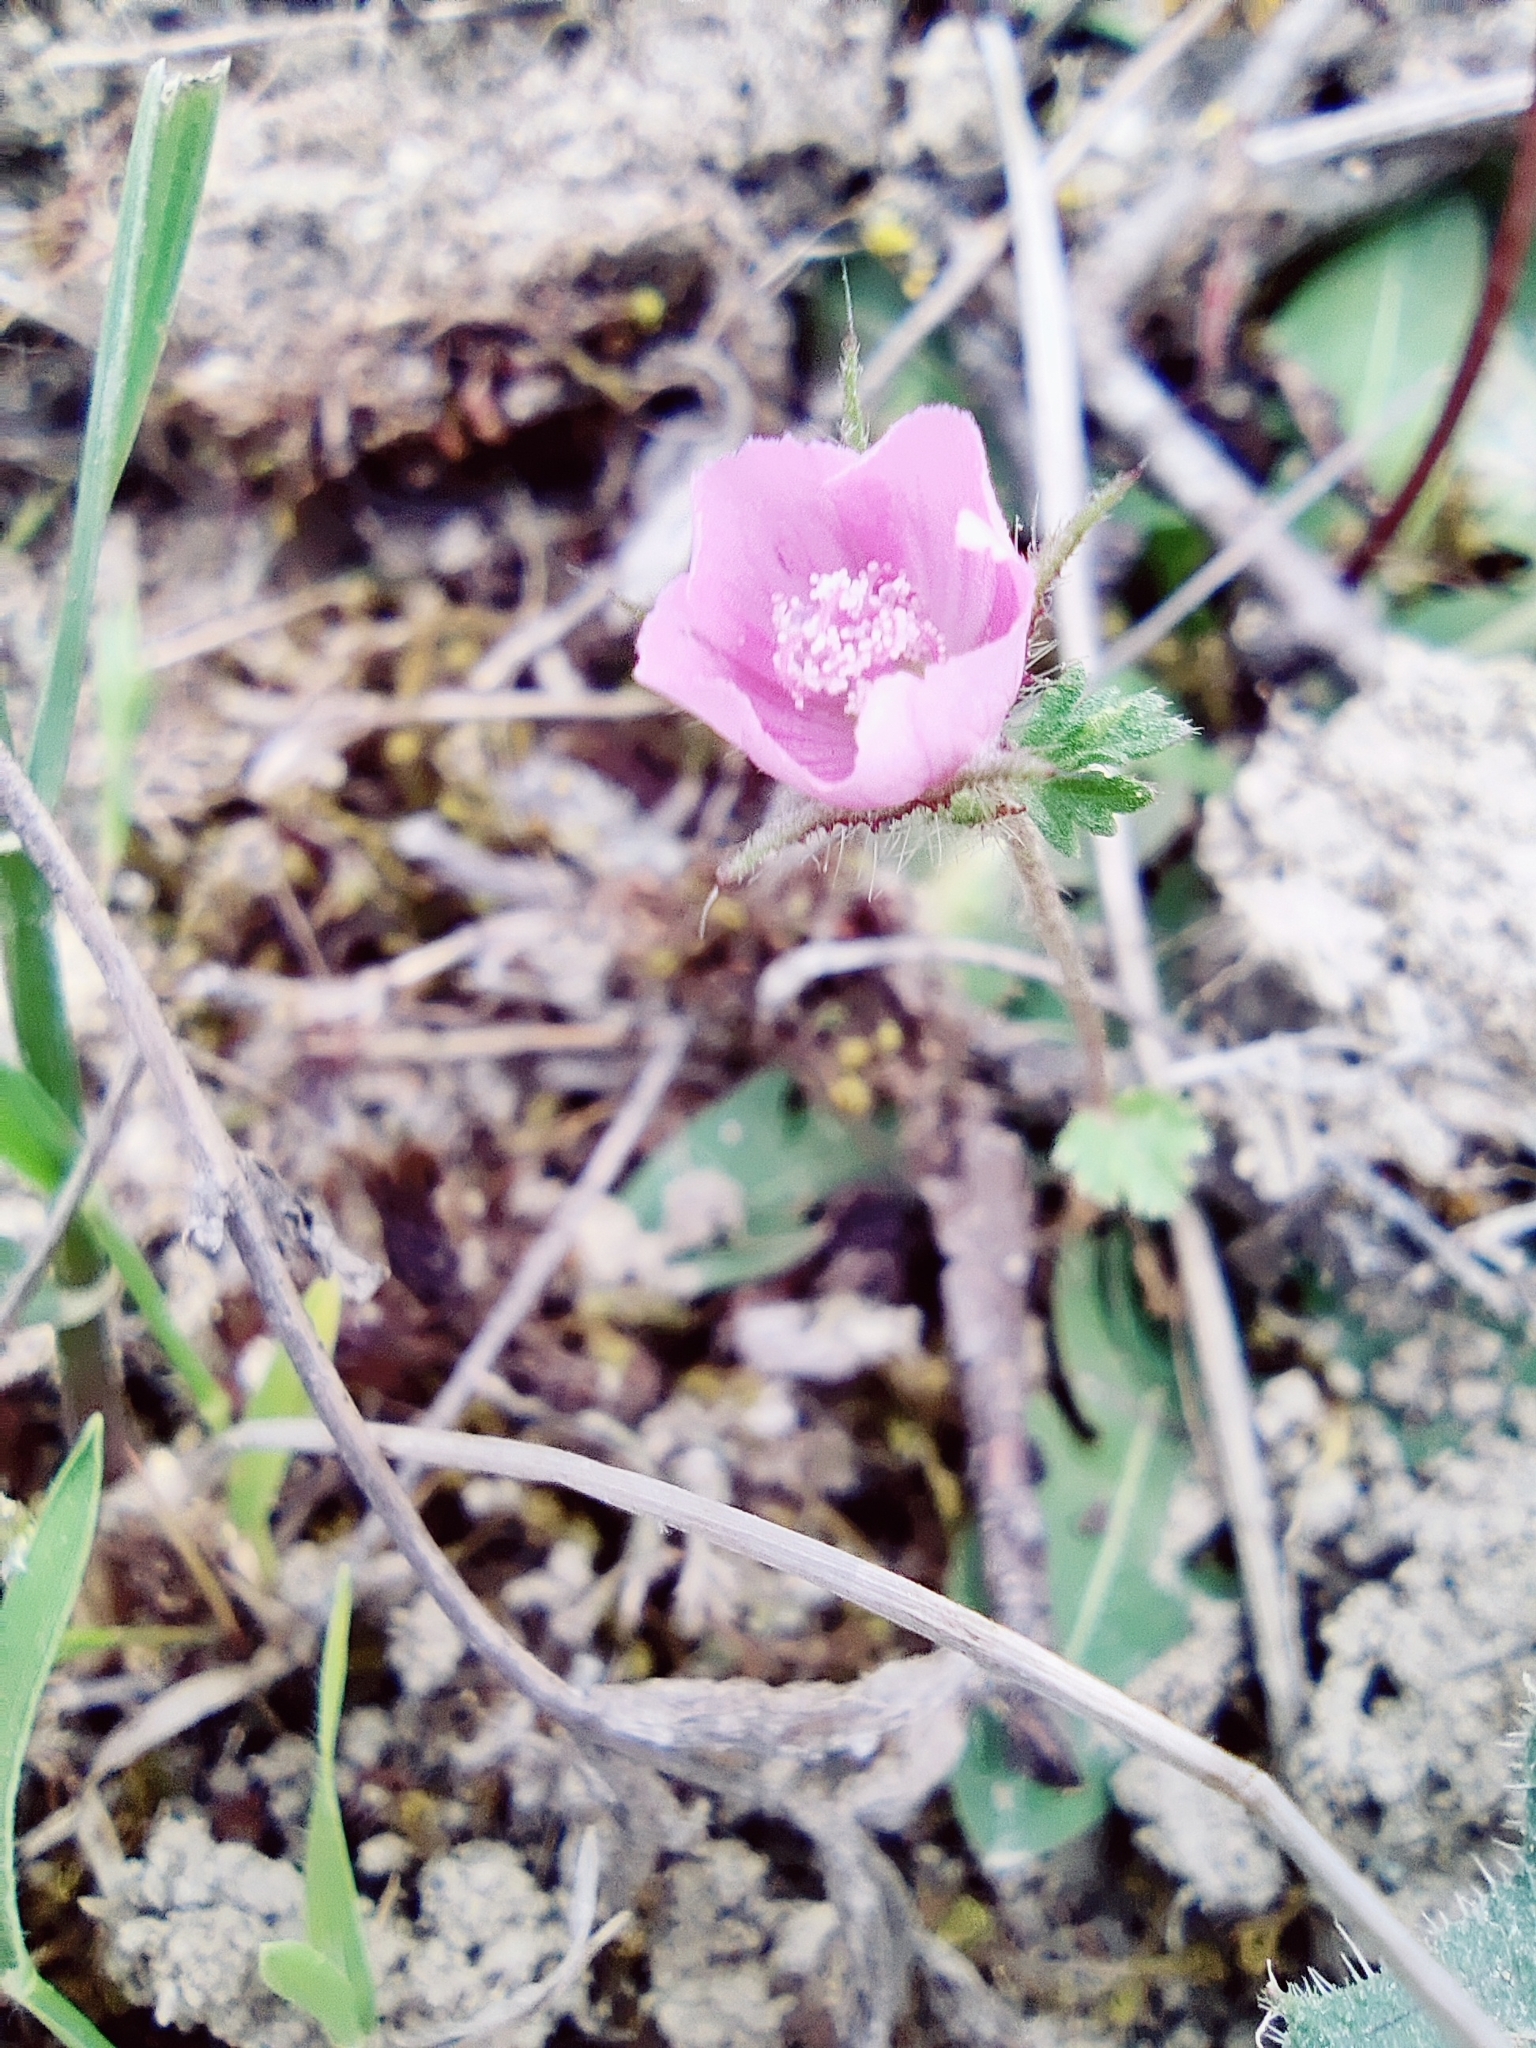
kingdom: Plantae
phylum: Tracheophyta
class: Magnoliopsida
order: Malvales
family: Malvaceae
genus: Althaea
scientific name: Althaea hirsuta
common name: Rough marsh-mallow
